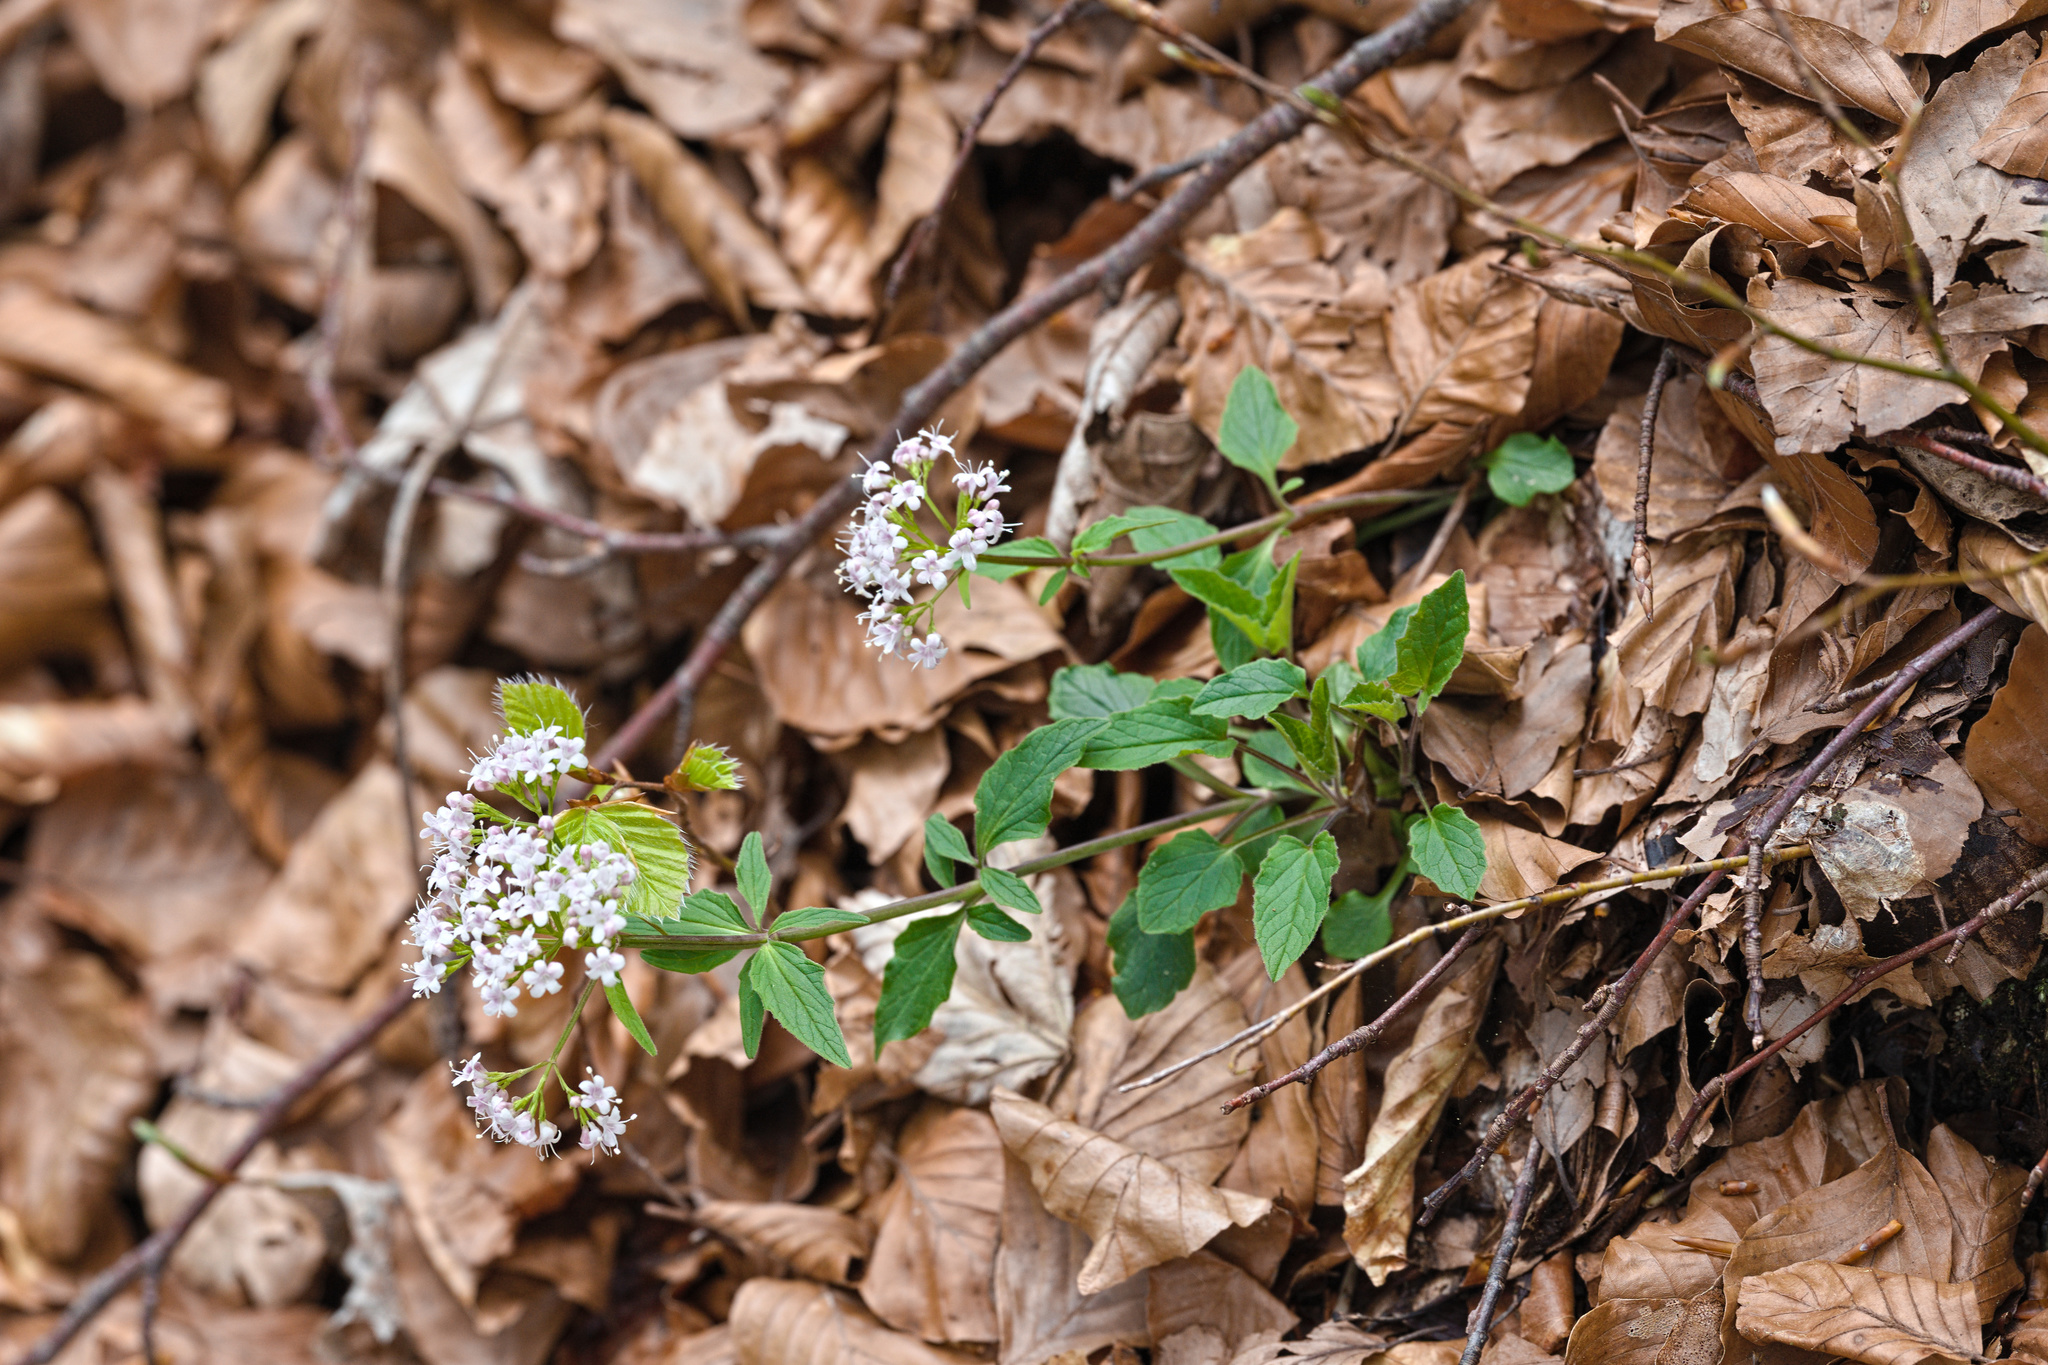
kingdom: Plantae
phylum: Tracheophyta
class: Magnoliopsida
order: Dipsacales
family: Caprifoliaceae
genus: Valeriana
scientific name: Valeriana tripteris
